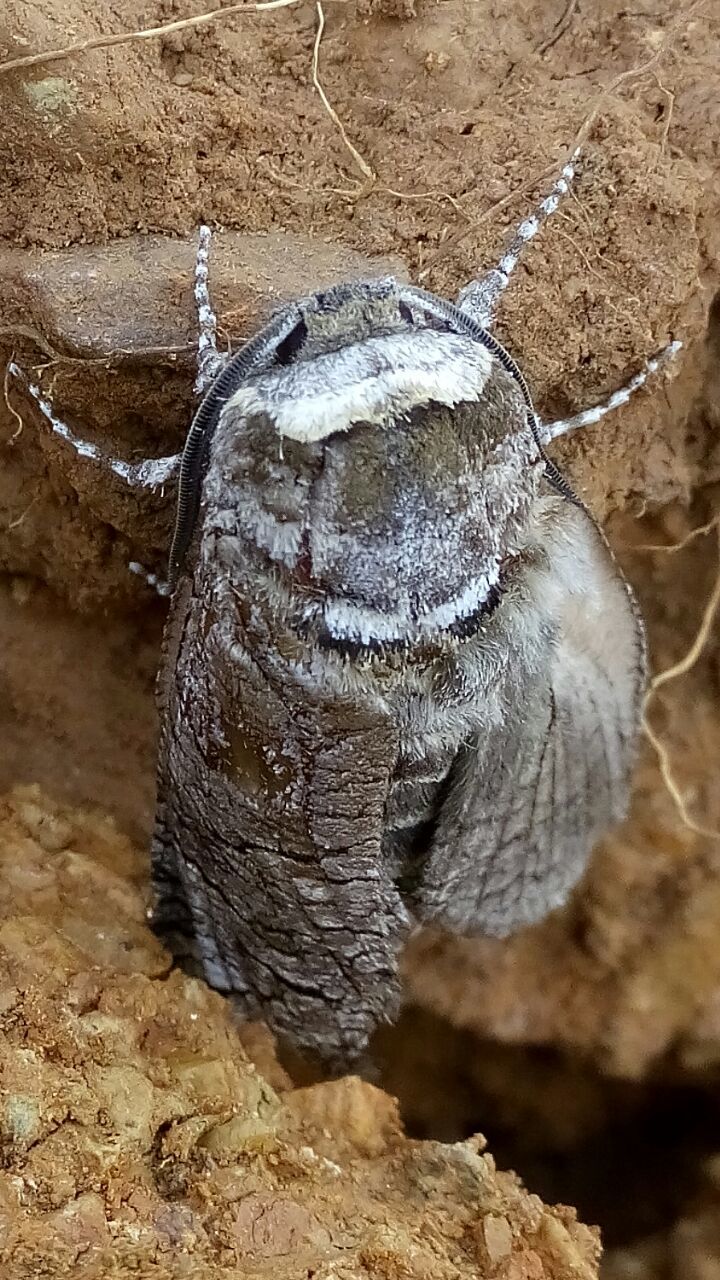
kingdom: Animalia
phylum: Arthropoda
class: Insecta
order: Lepidoptera
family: Cossidae
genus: Cossus
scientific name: Cossus cossus
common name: Goat moth
